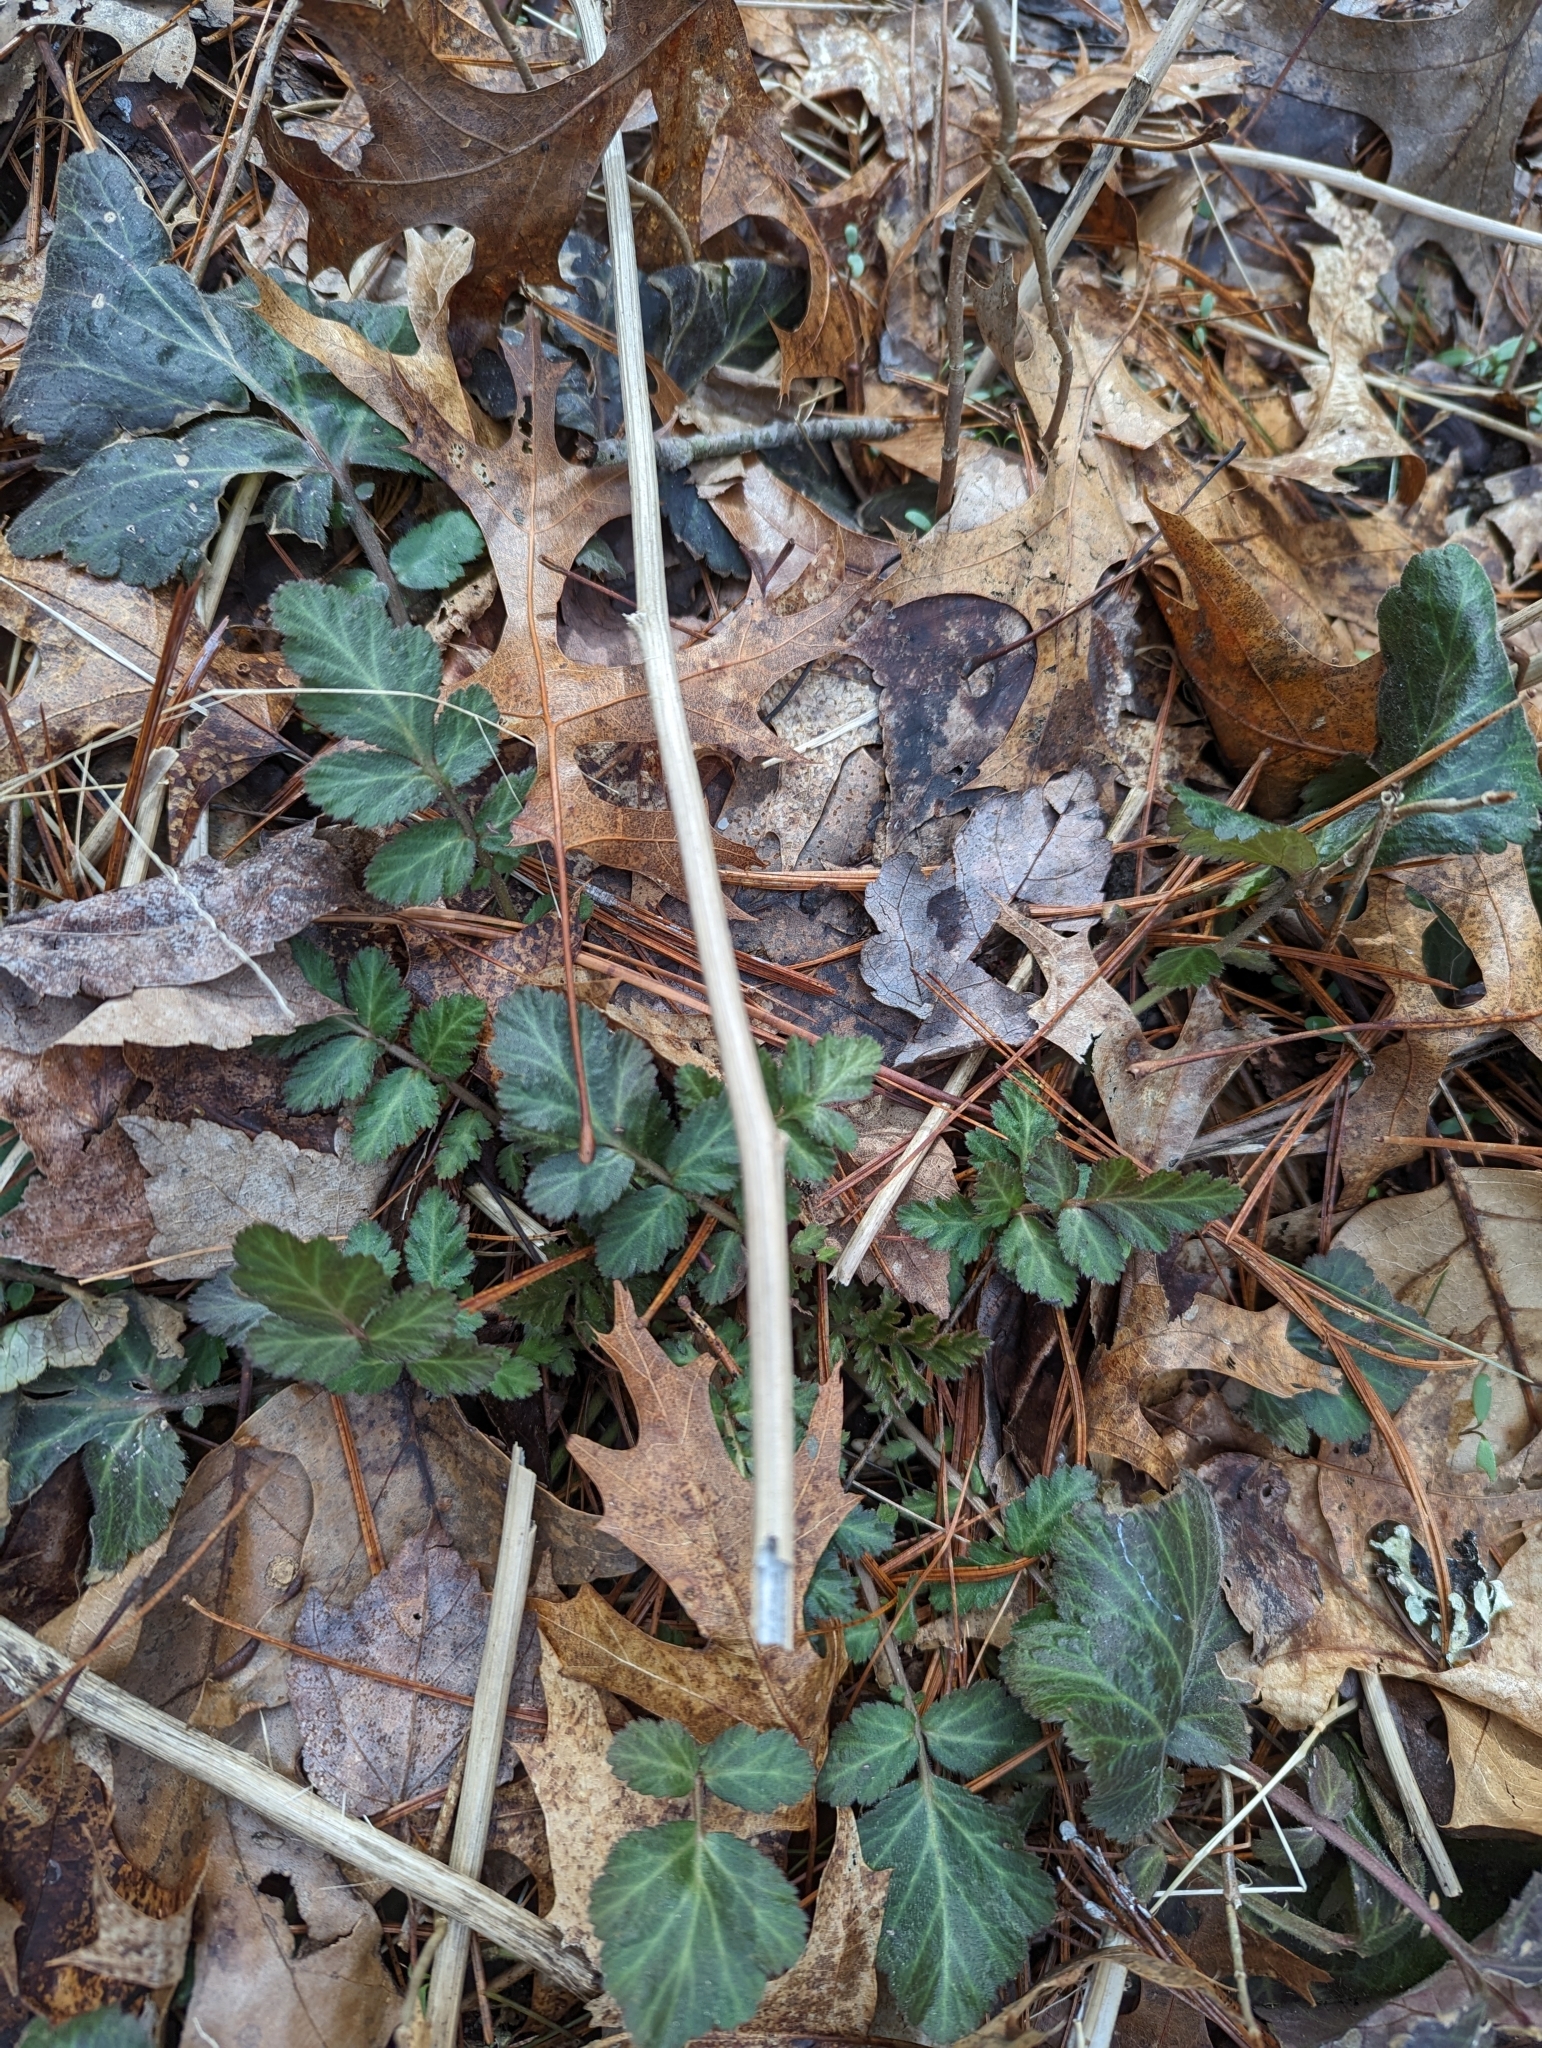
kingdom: Plantae
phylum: Tracheophyta
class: Magnoliopsida
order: Rosales
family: Rosaceae
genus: Geum
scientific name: Geum canadense
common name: White avens
